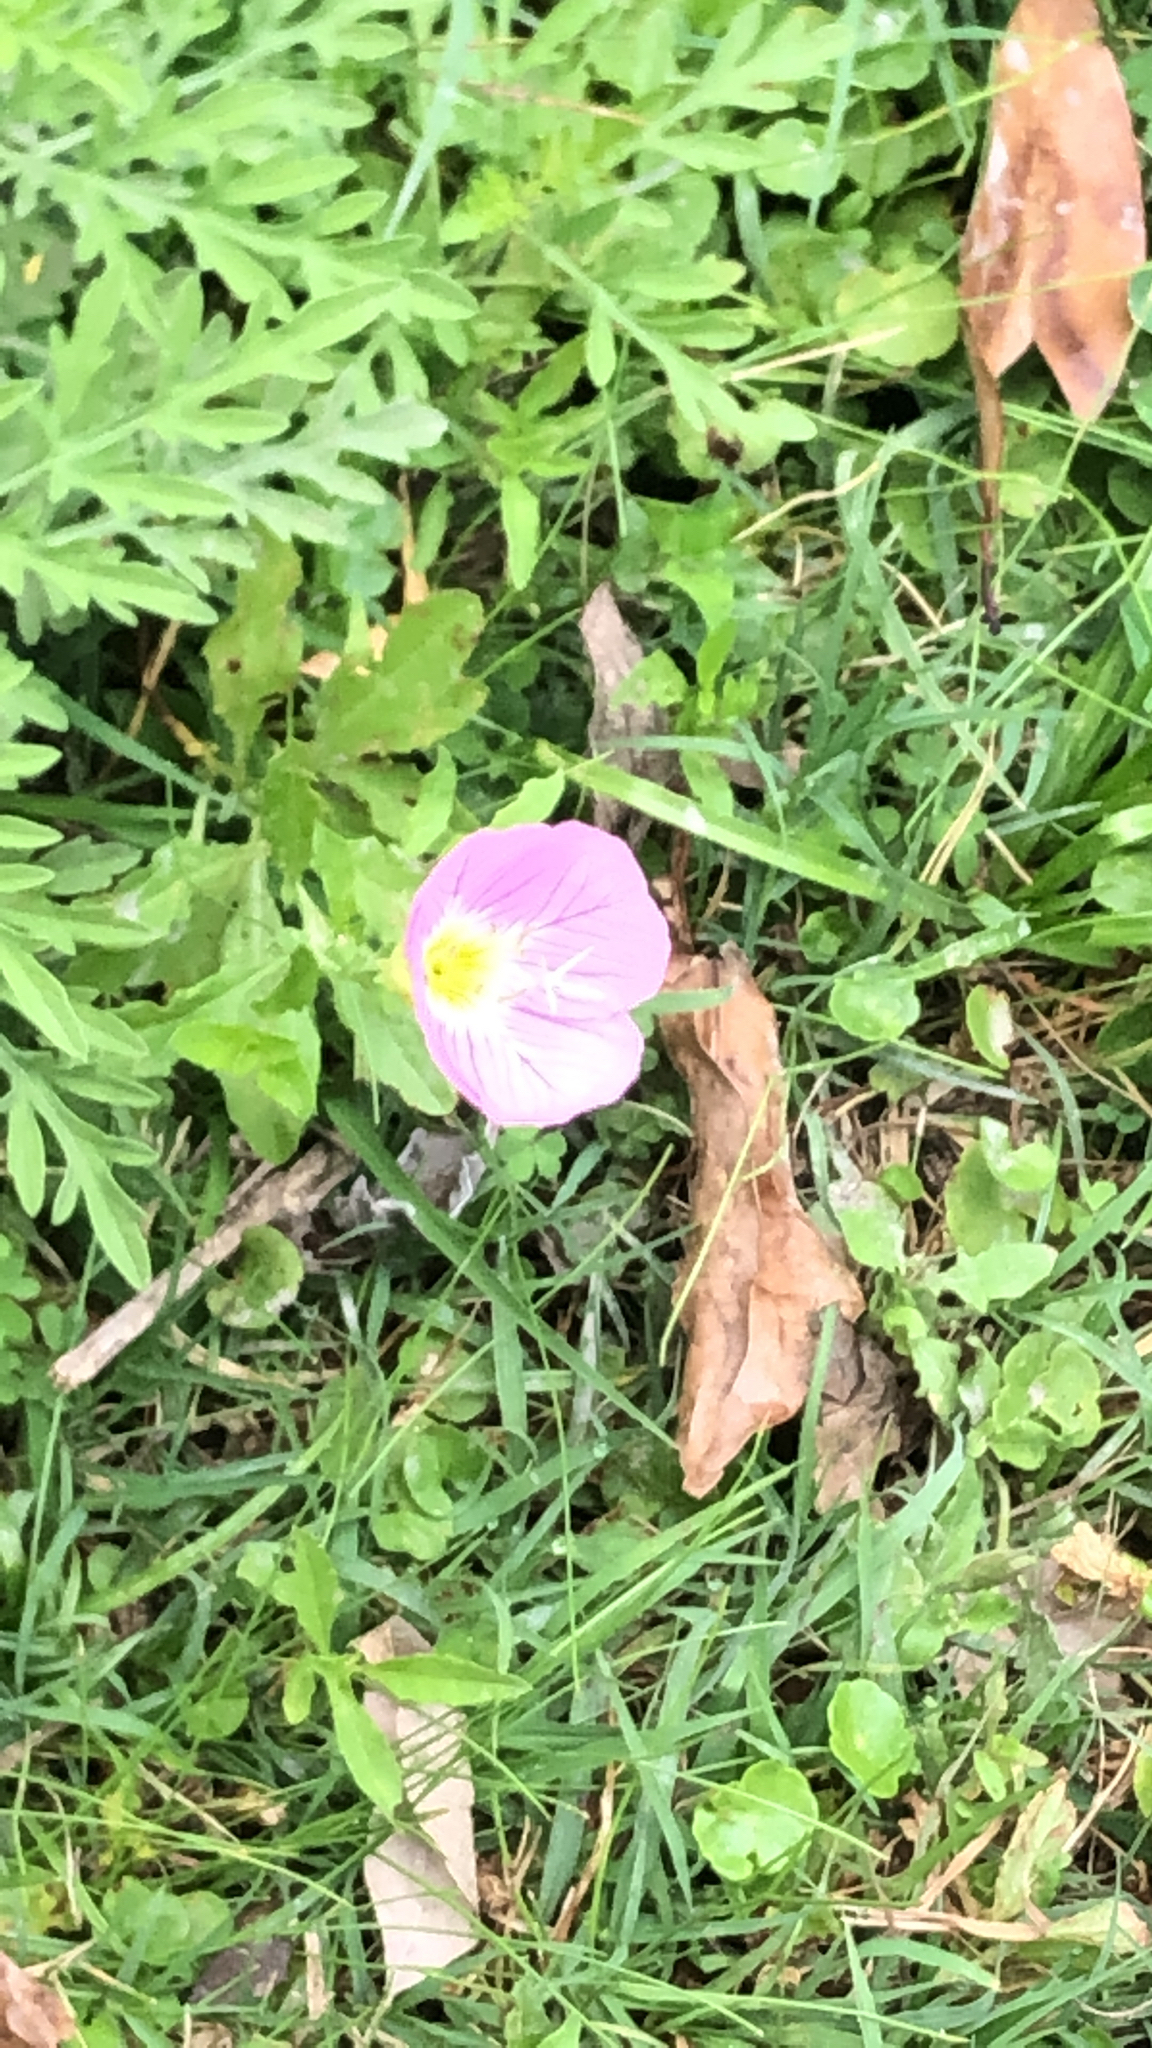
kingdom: Plantae
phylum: Tracheophyta
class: Magnoliopsida
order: Myrtales
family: Onagraceae
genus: Oenothera
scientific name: Oenothera speciosa
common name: White evening-primrose
